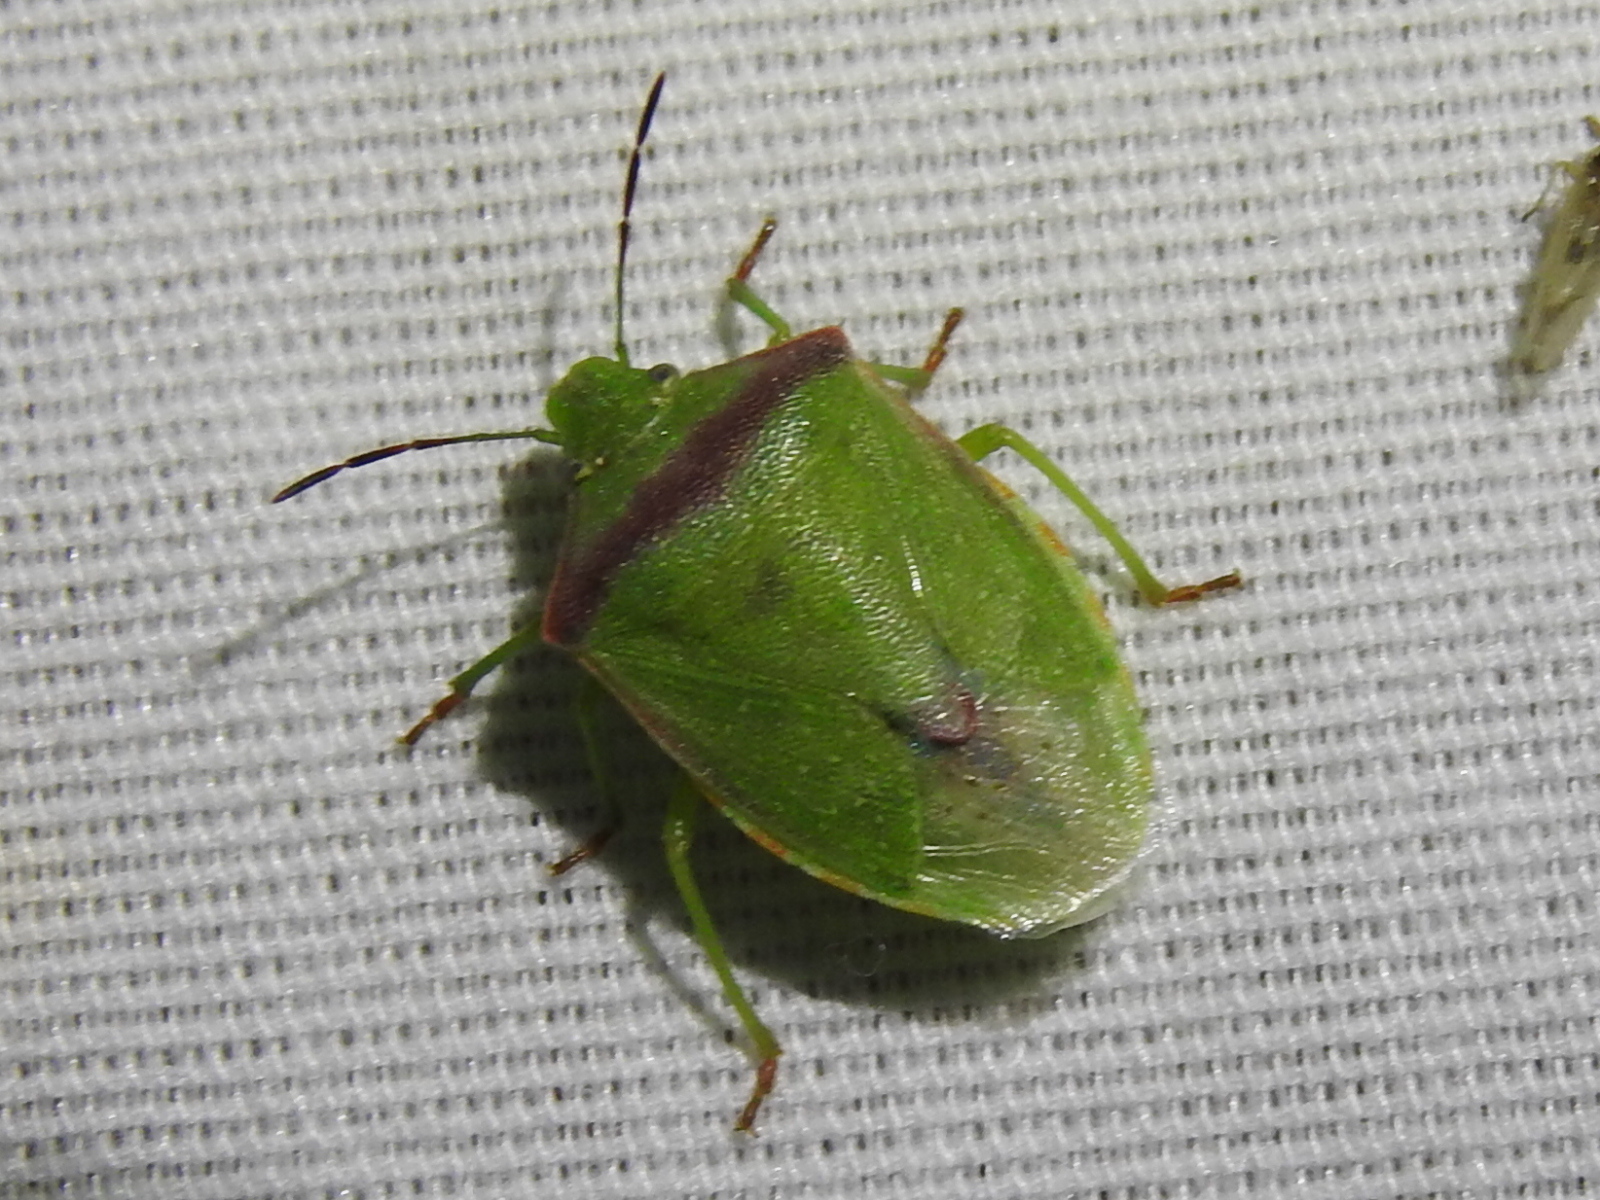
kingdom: Animalia
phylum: Arthropoda
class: Insecta
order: Hemiptera
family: Pentatomidae
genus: Thyanta
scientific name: Thyanta custator
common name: Stink bug
